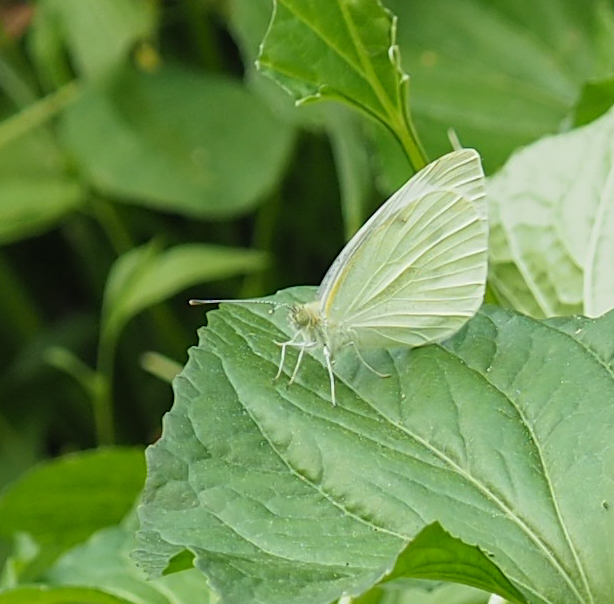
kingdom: Animalia
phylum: Arthropoda
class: Insecta
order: Lepidoptera
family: Pieridae
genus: Pieris
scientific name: Pieris rapae
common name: Small white
